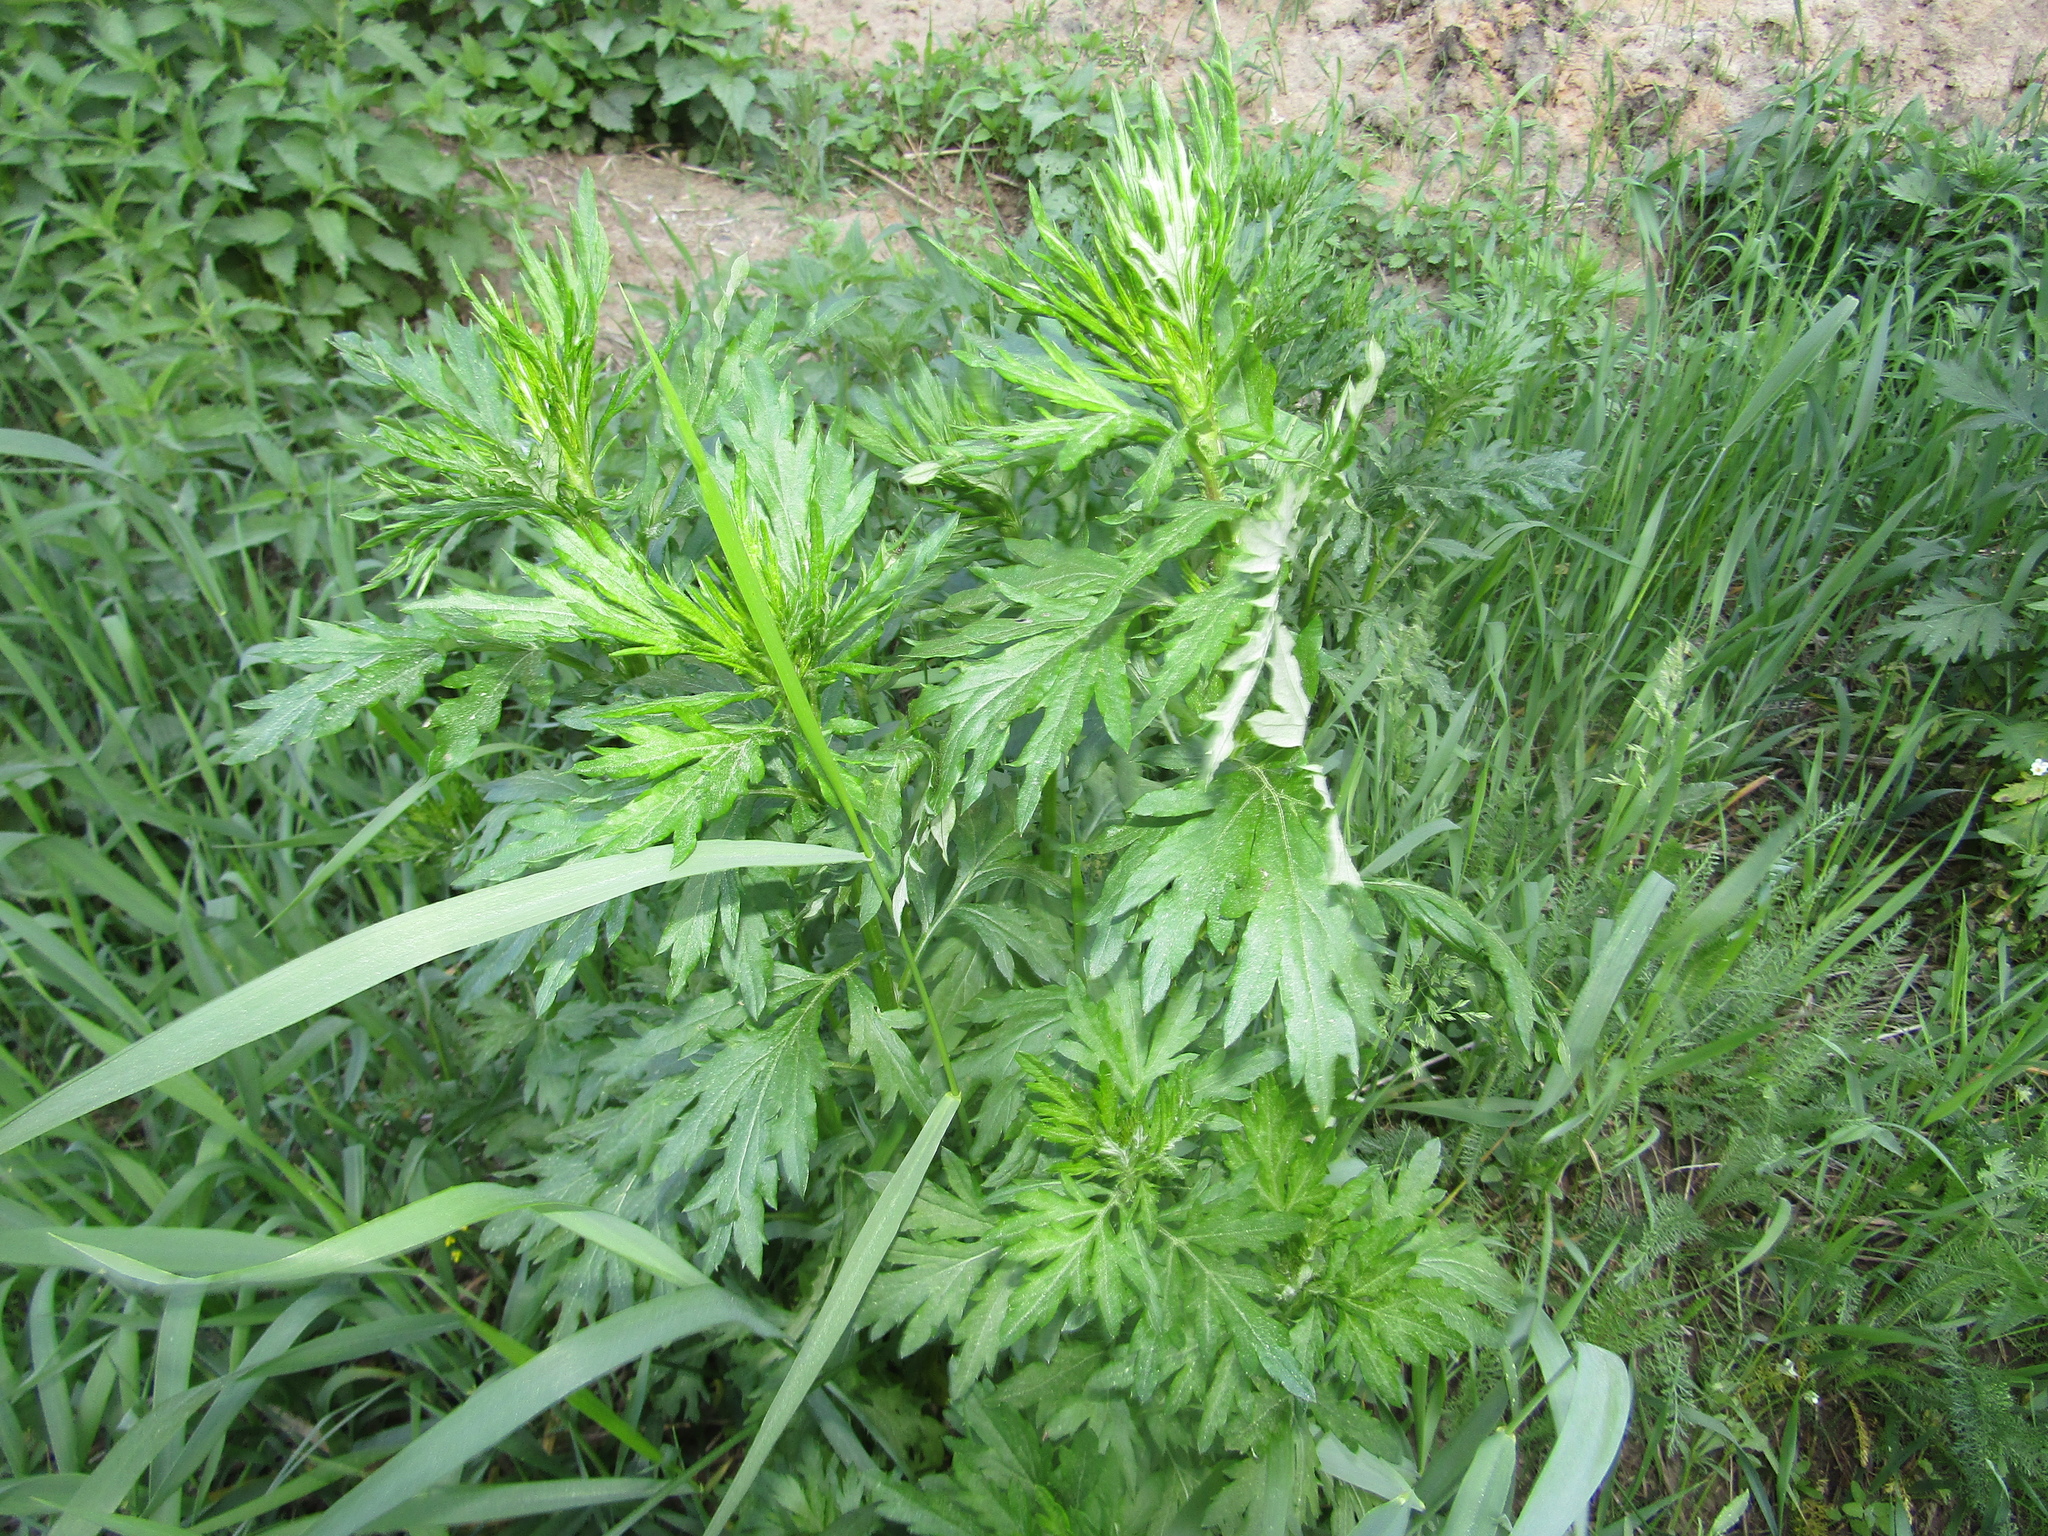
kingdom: Plantae
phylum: Tracheophyta
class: Magnoliopsida
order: Asterales
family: Asteraceae
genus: Artemisia
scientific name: Artemisia vulgaris
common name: Mugwort
